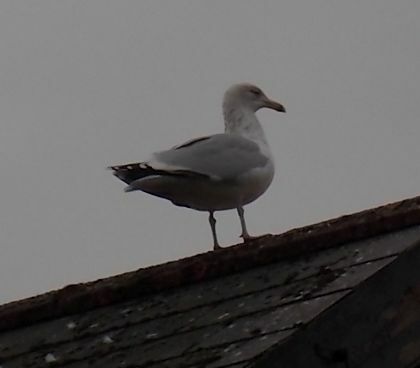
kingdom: Animalia
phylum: Chordata
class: Aves
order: Charadriiformes
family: Laridae
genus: Larus
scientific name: Larus argentatus
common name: Herring gull
